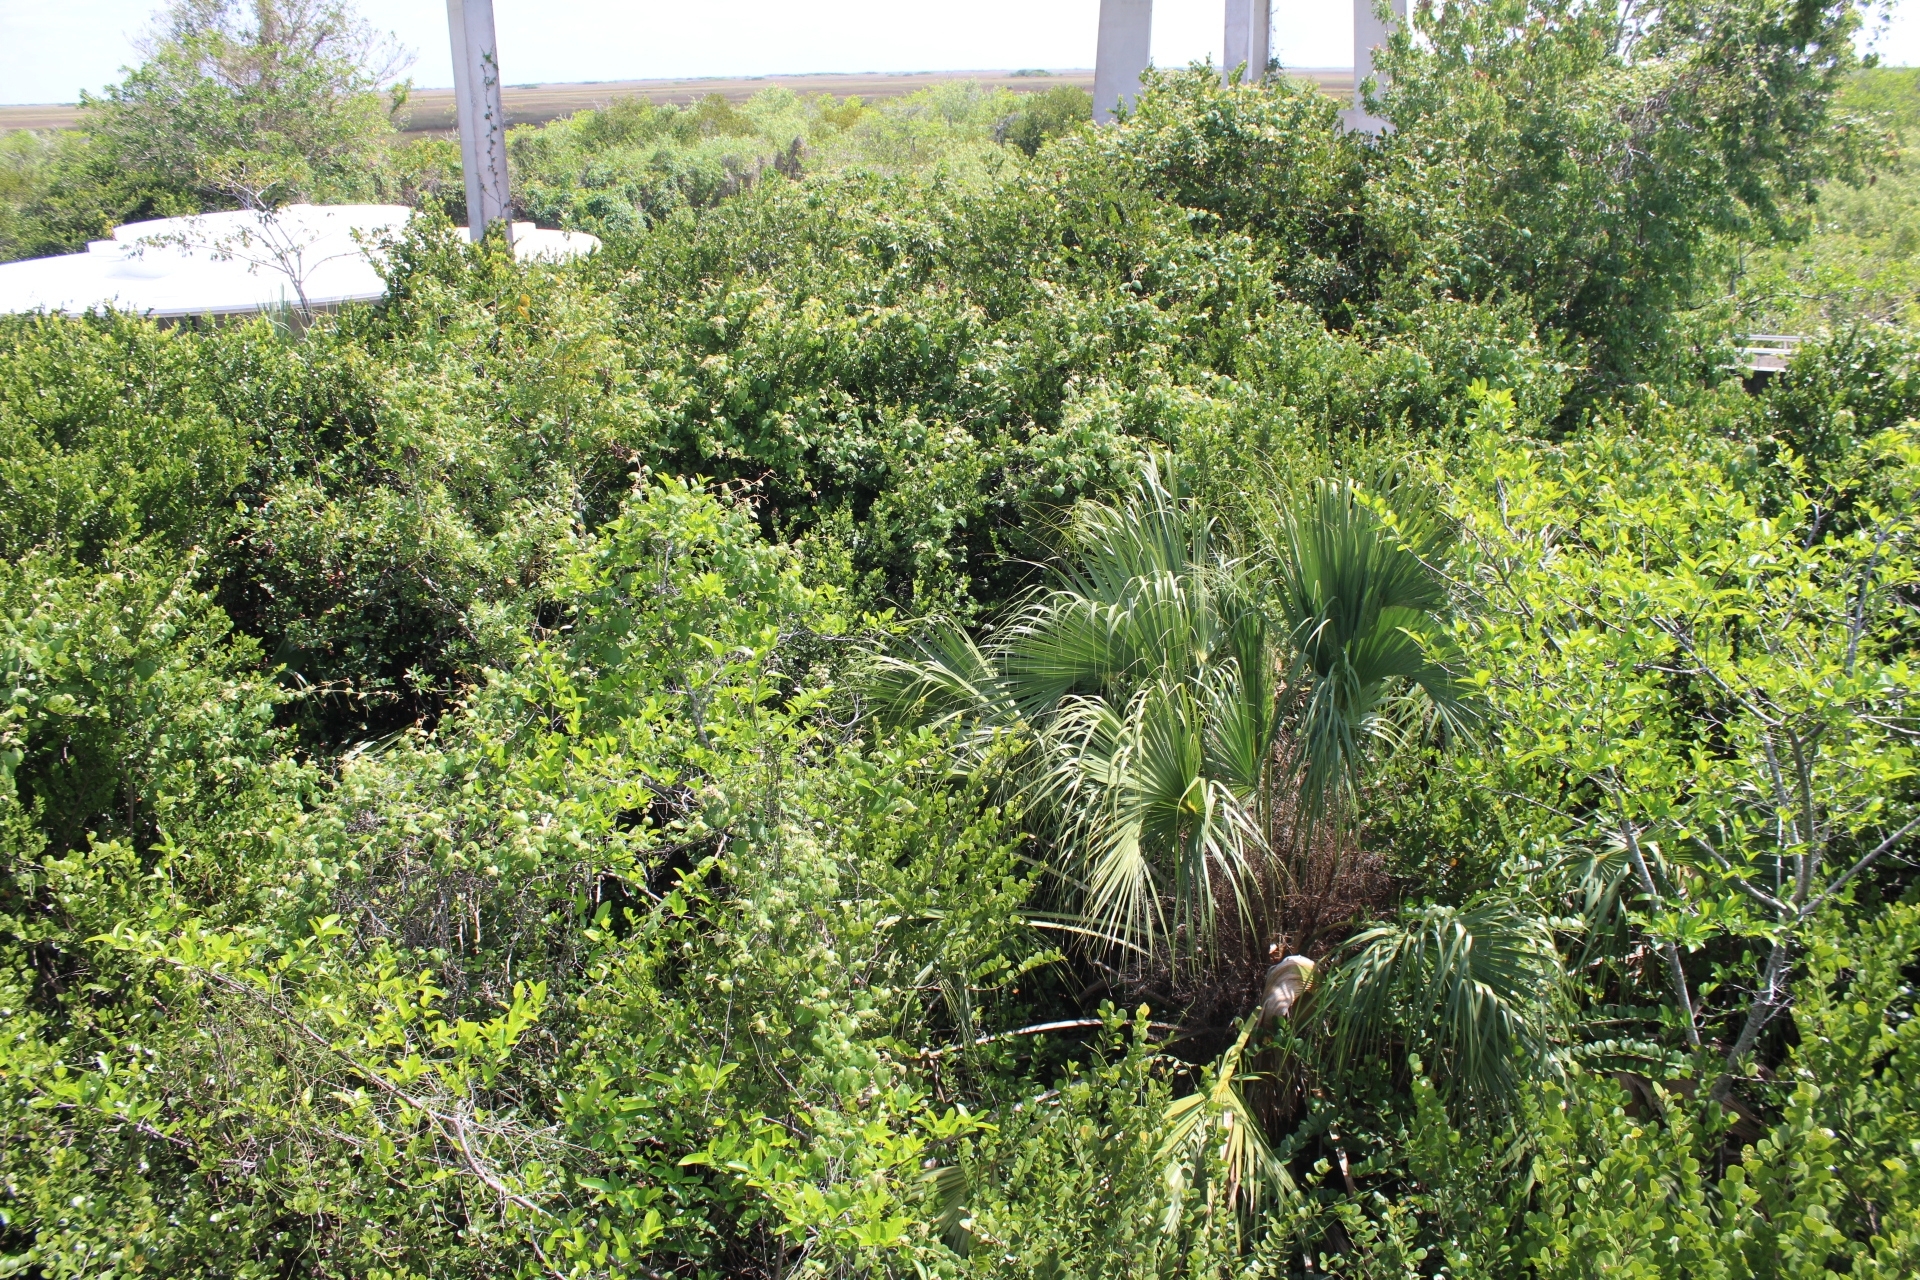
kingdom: Plantae
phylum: Tracheophyta
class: Liliopsida
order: Arecales
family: Arecaceae
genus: Sabal
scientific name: Sabal palmetto
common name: Blue palmetto
